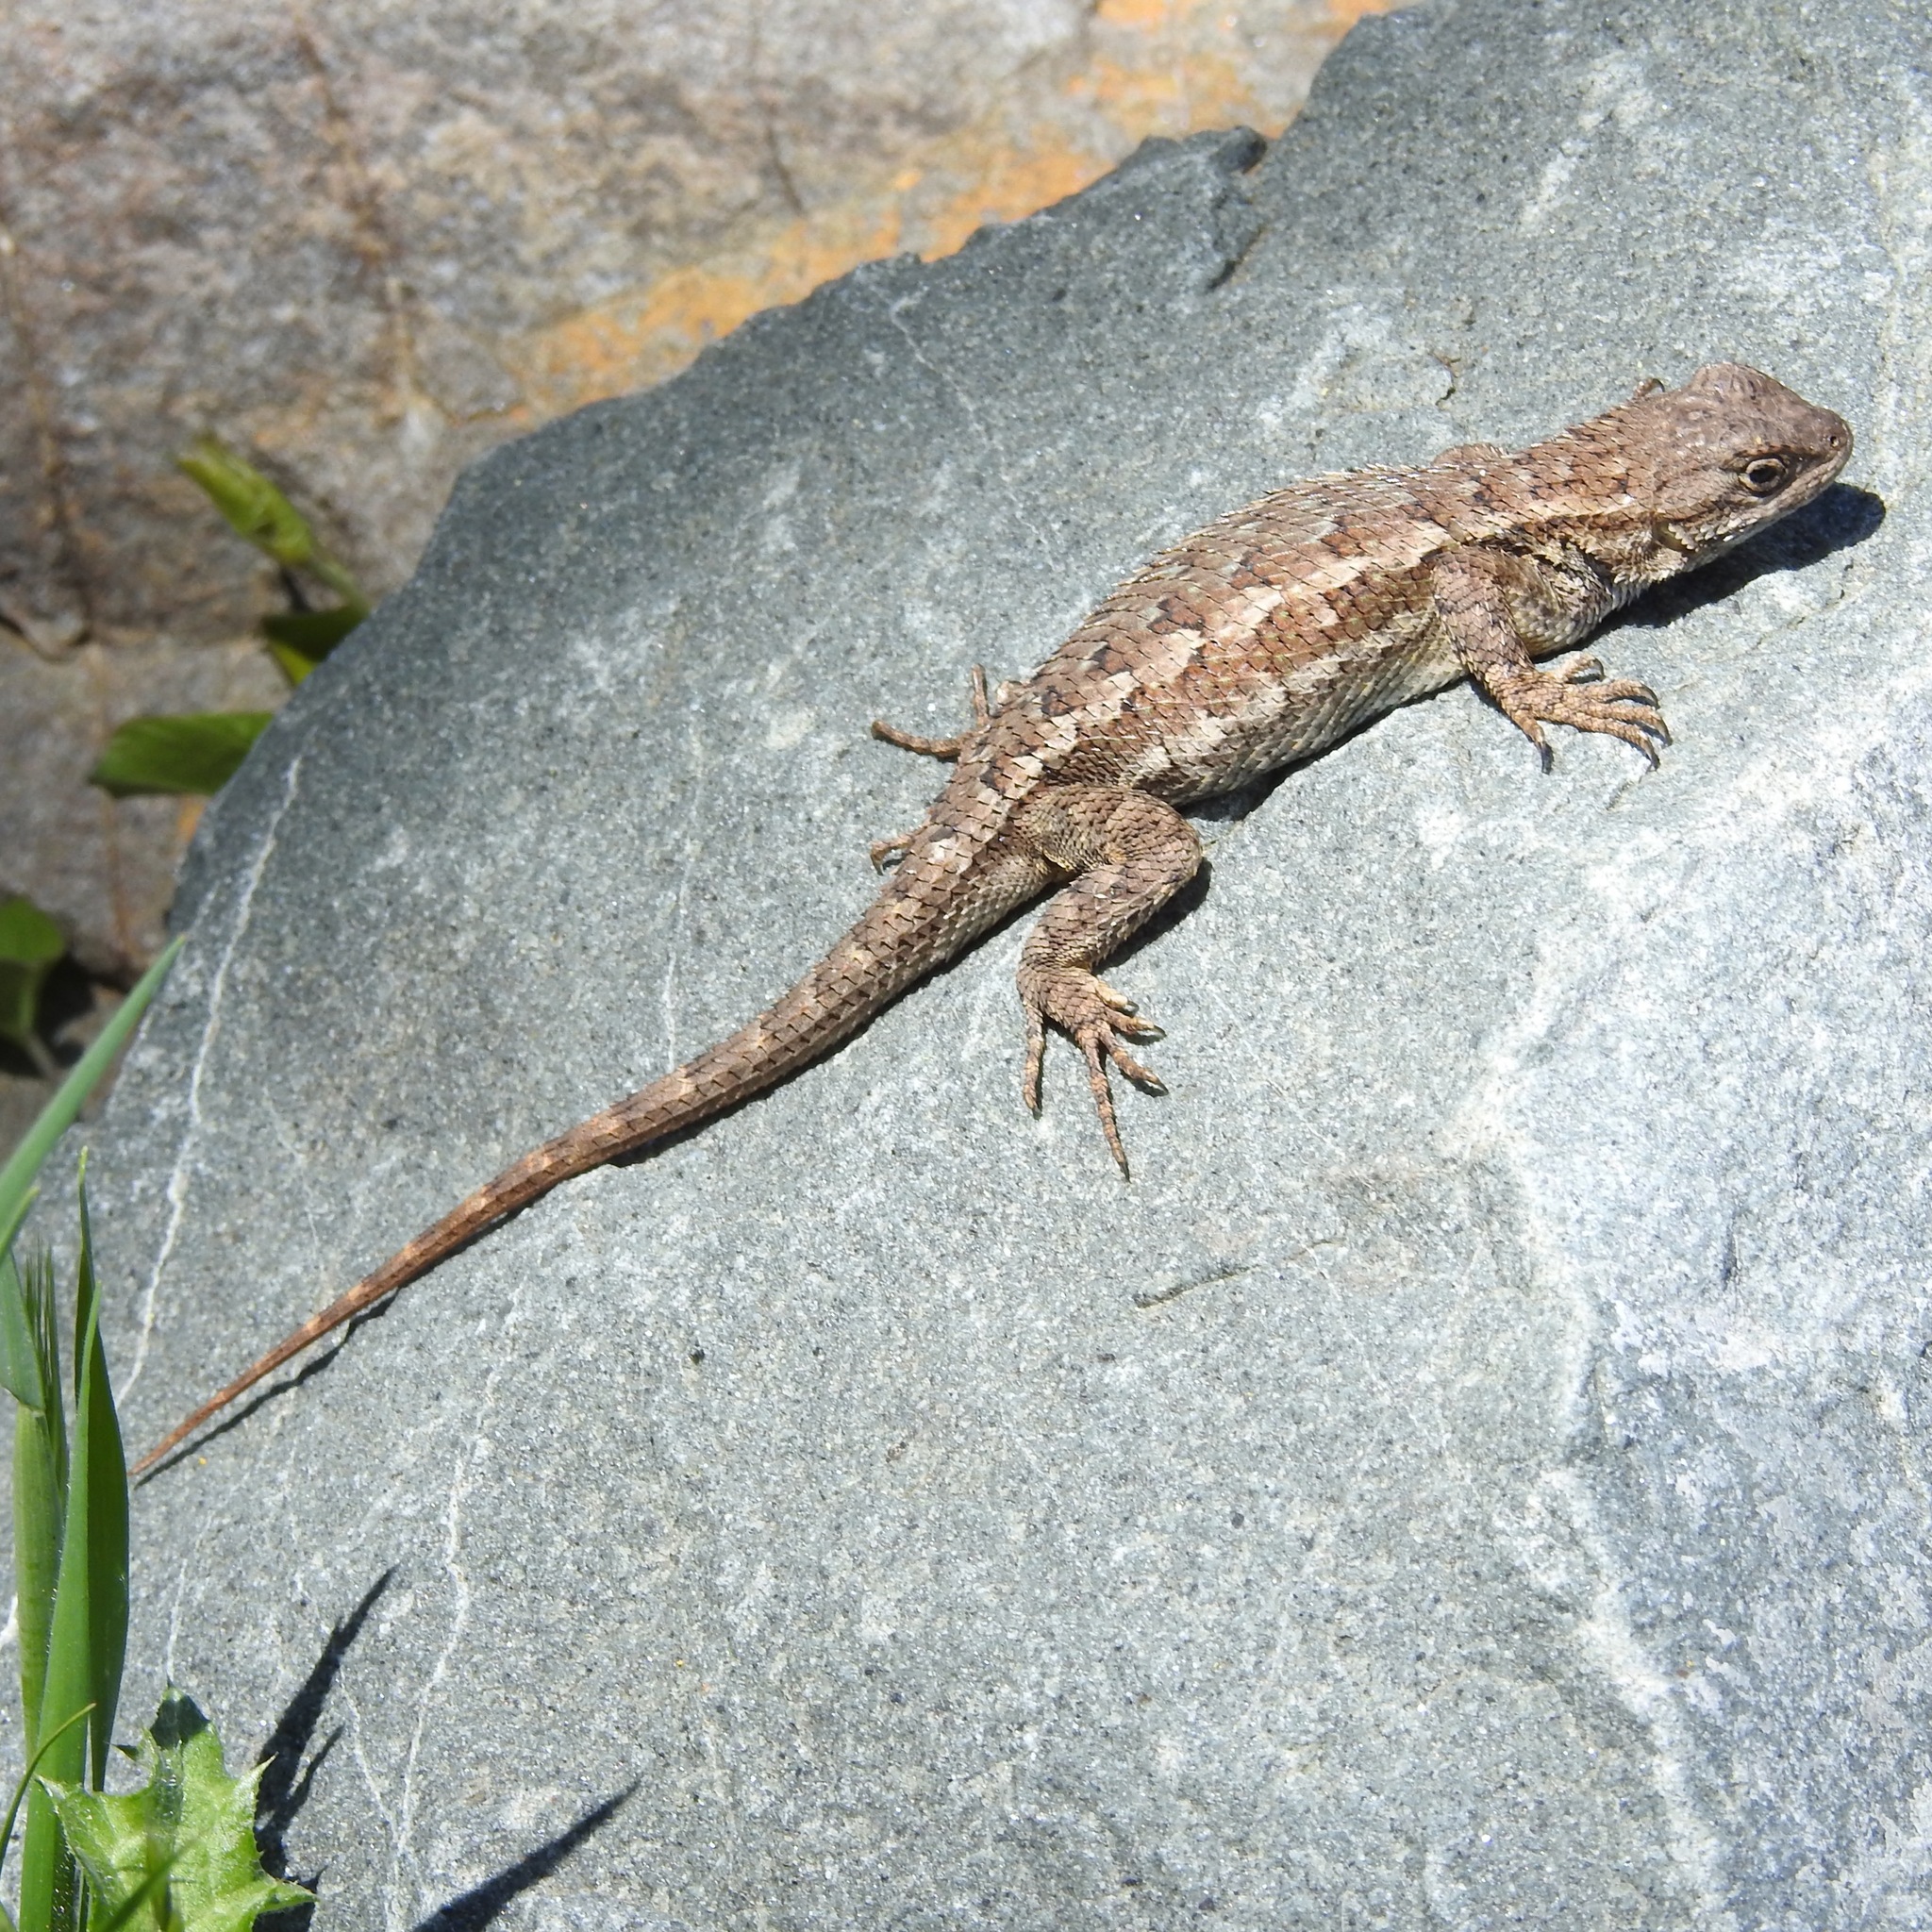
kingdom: Animalia
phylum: Chordata
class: Squamata
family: Phrynosomatidae
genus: Sceloporus
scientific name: Sceloporus occidentalis
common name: Western fence lizard
